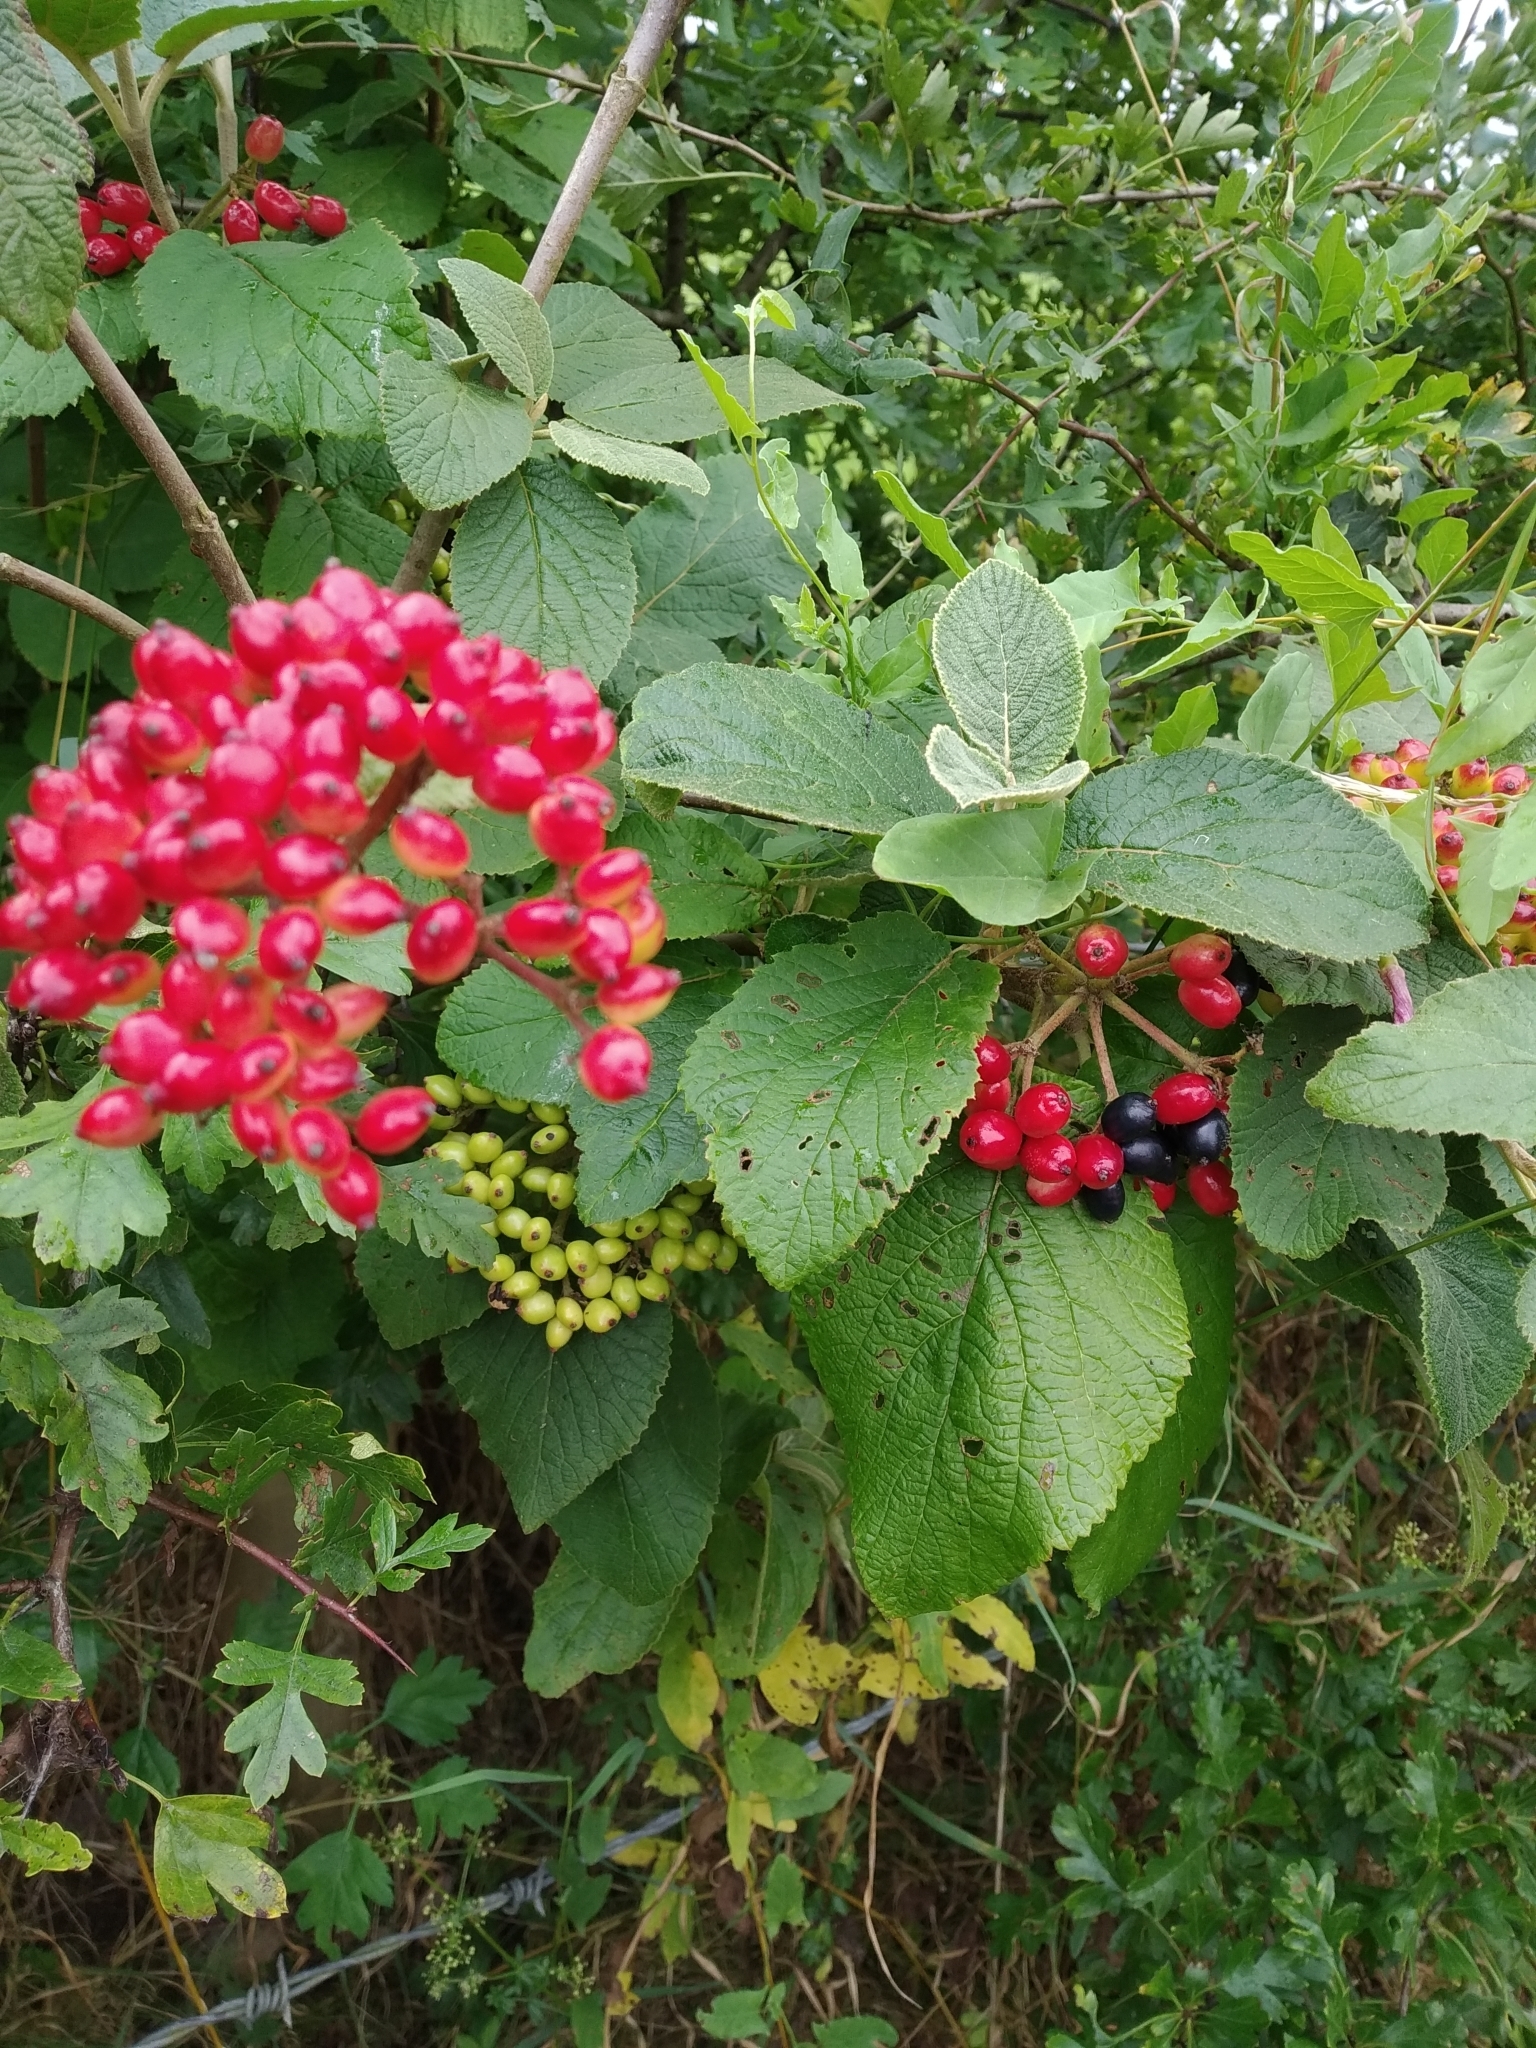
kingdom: Plantae
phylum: Tracheophyta
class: Magnoliopsida
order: Dipsacales
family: Viburnaceae
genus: Viburnum
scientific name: Viburnum lantana
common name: Wayfaring tree
